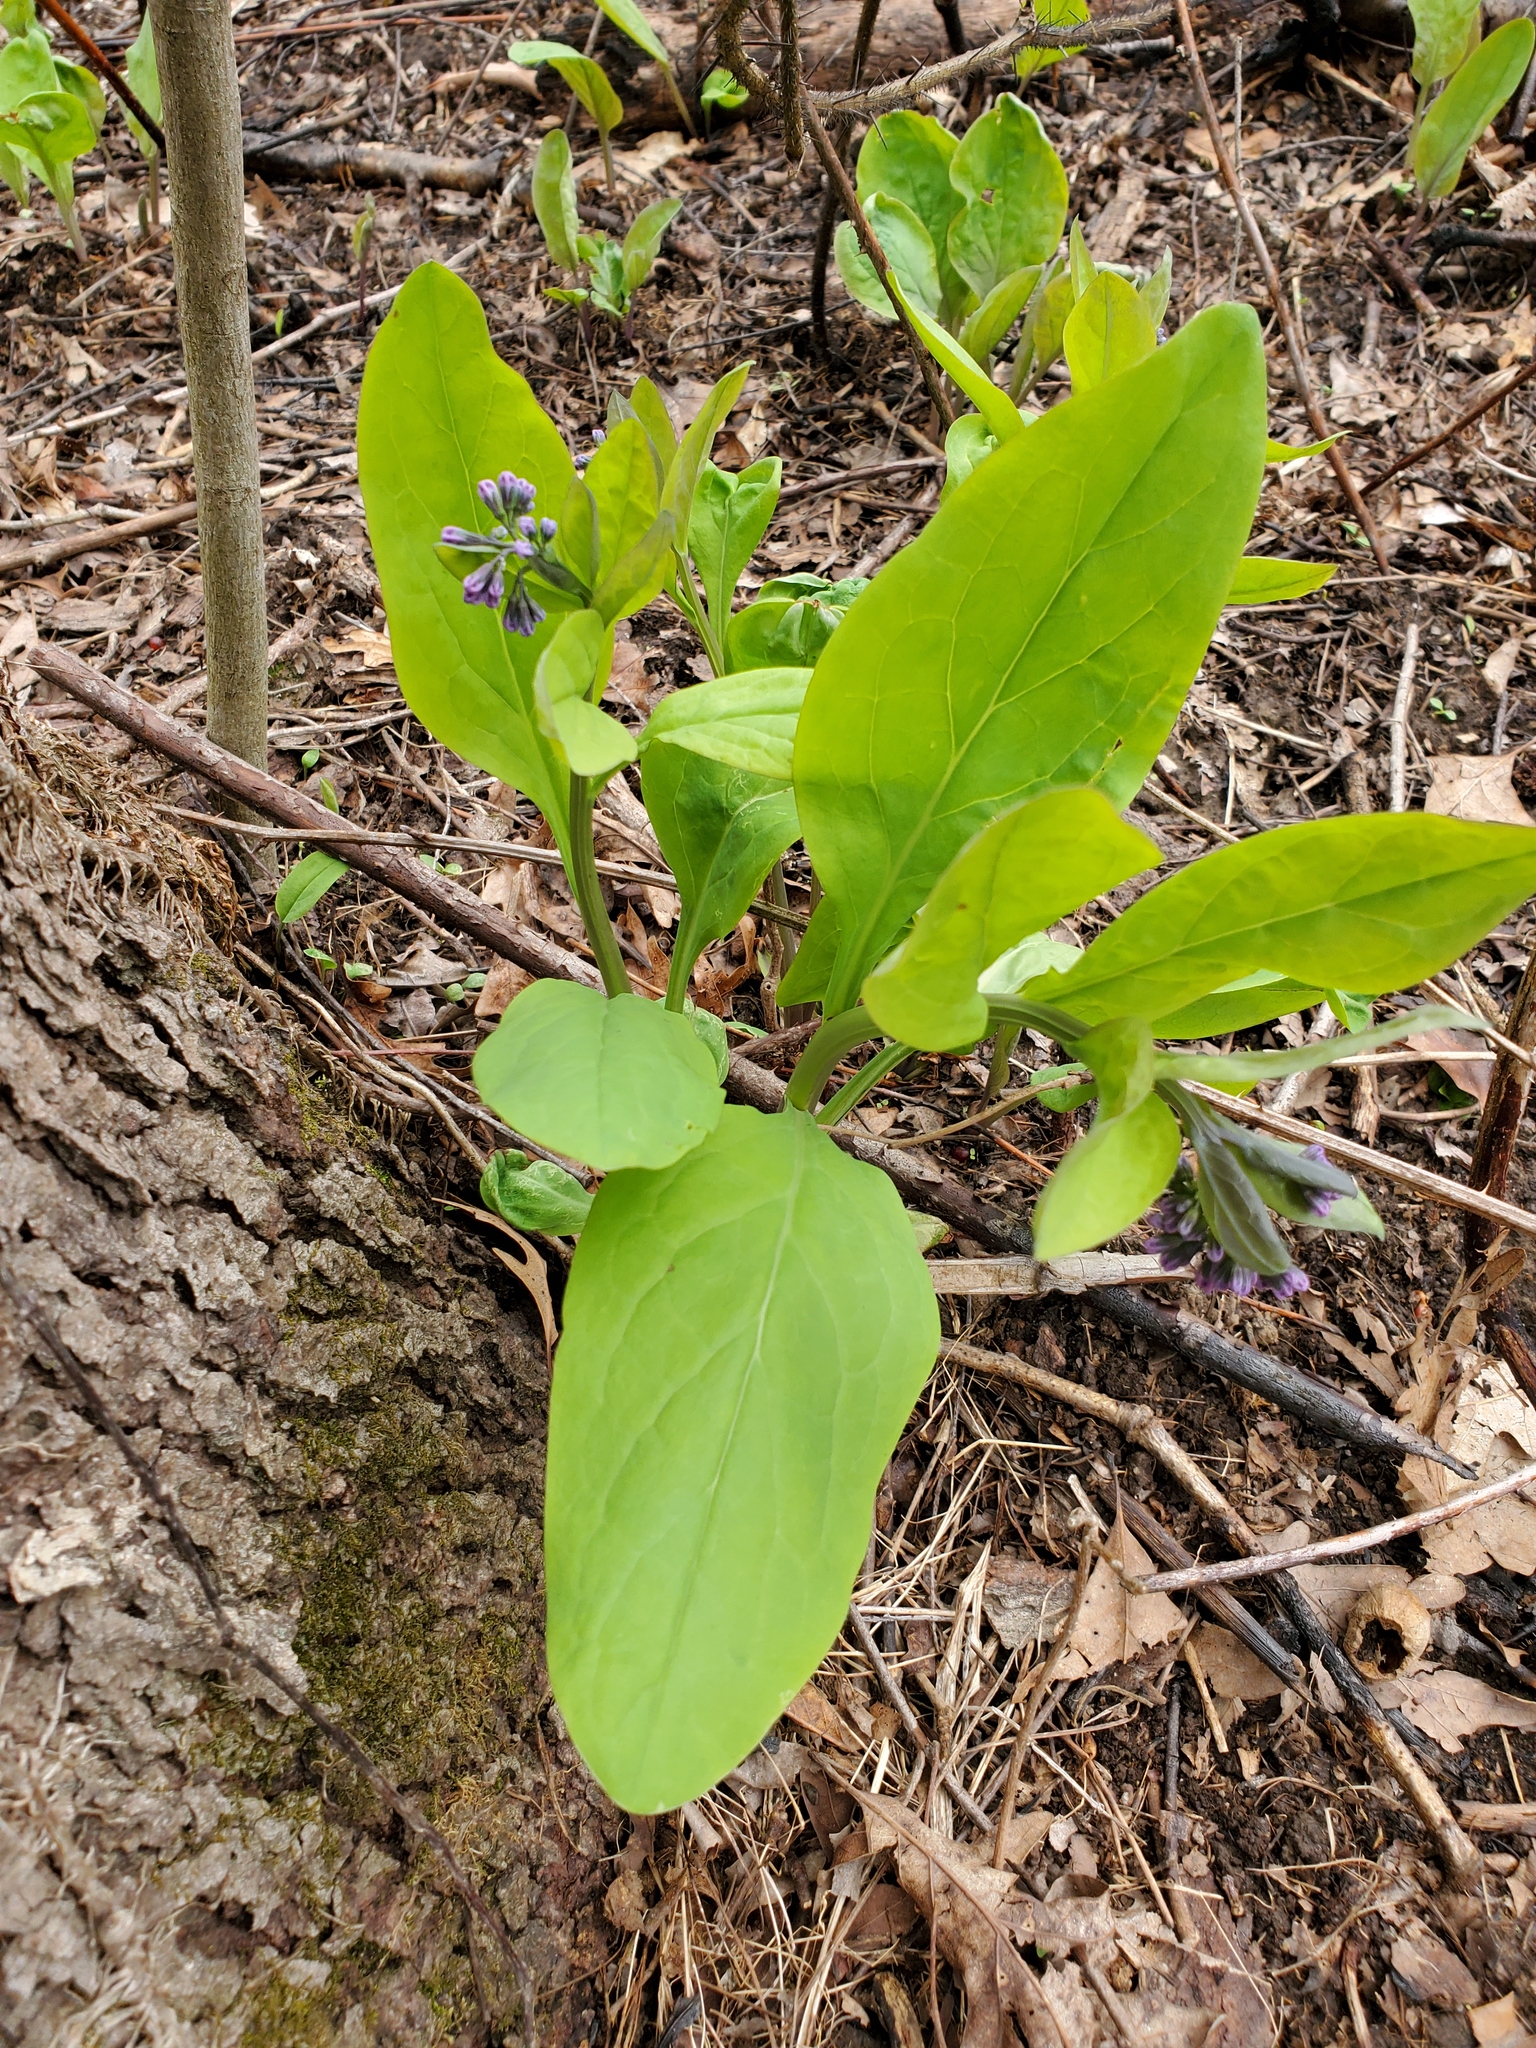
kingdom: Plantae
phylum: Tracheophyta
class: Magnoliopsida
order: Boraginales
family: Boraginaceae
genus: Mertensia
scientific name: Mertensia virginica
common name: Virginia bluebells
